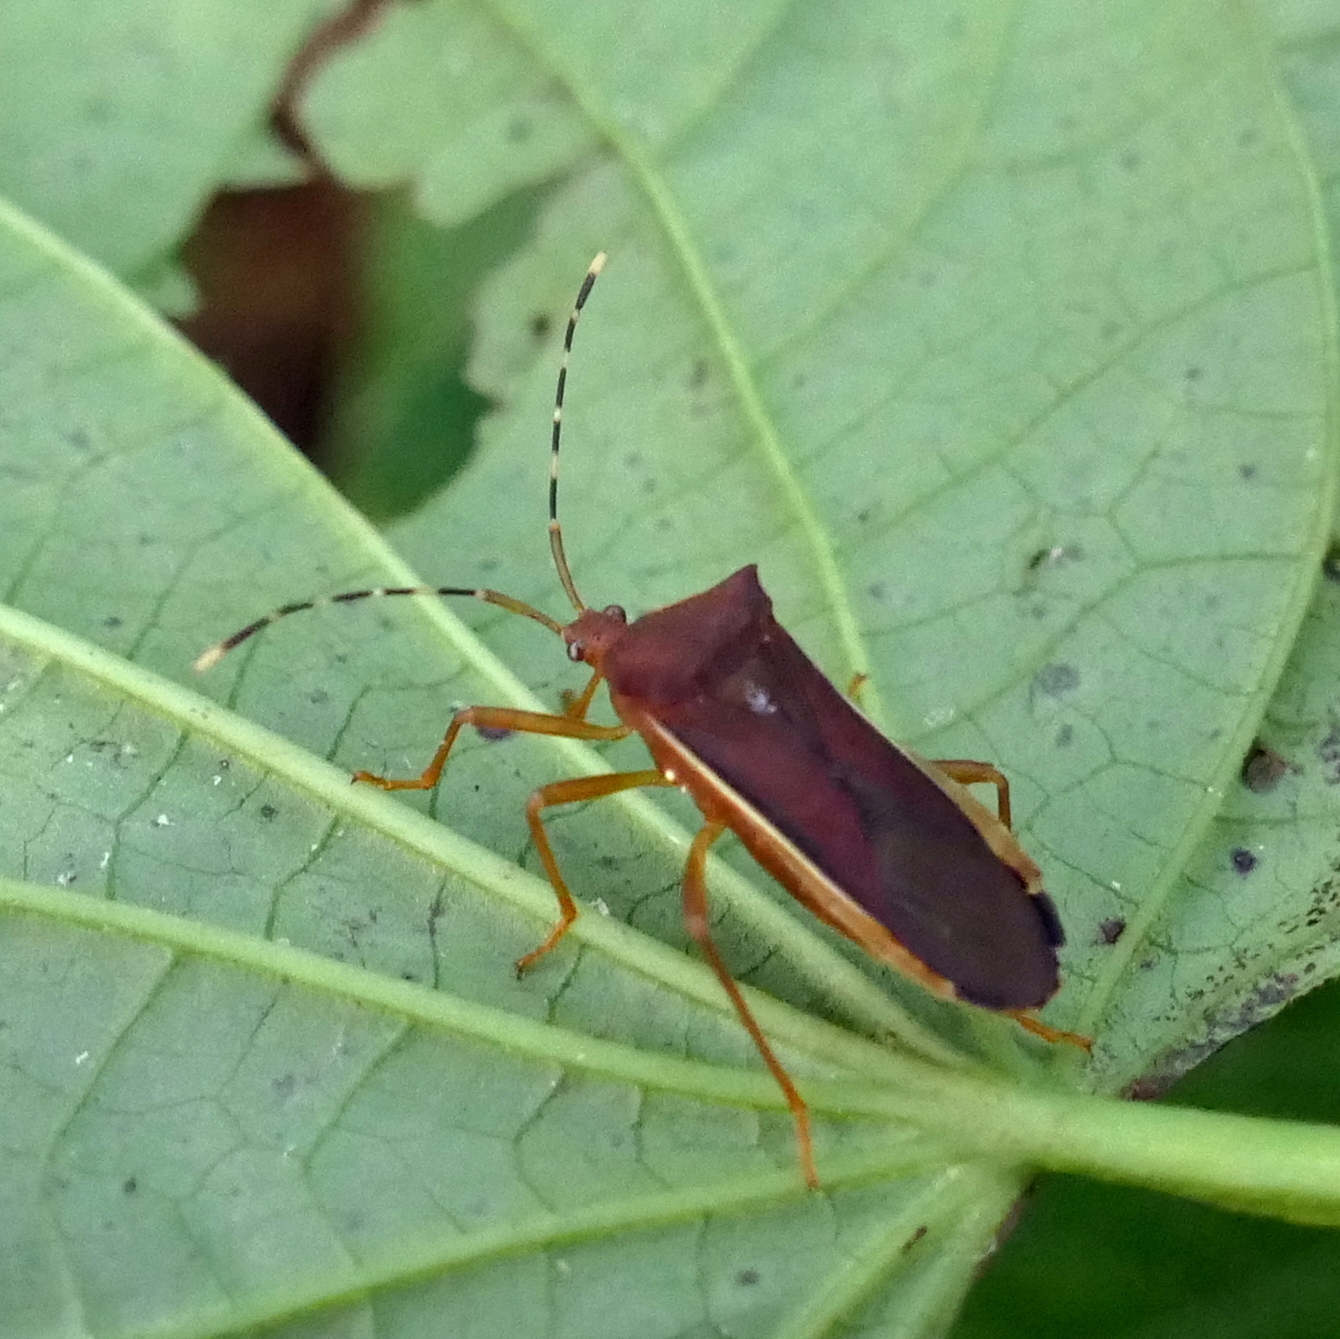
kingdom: Animalia
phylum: Arthropoda
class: Insecta
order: Hemiptera
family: Coreidae
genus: Anasa
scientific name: Anasa varicornis
